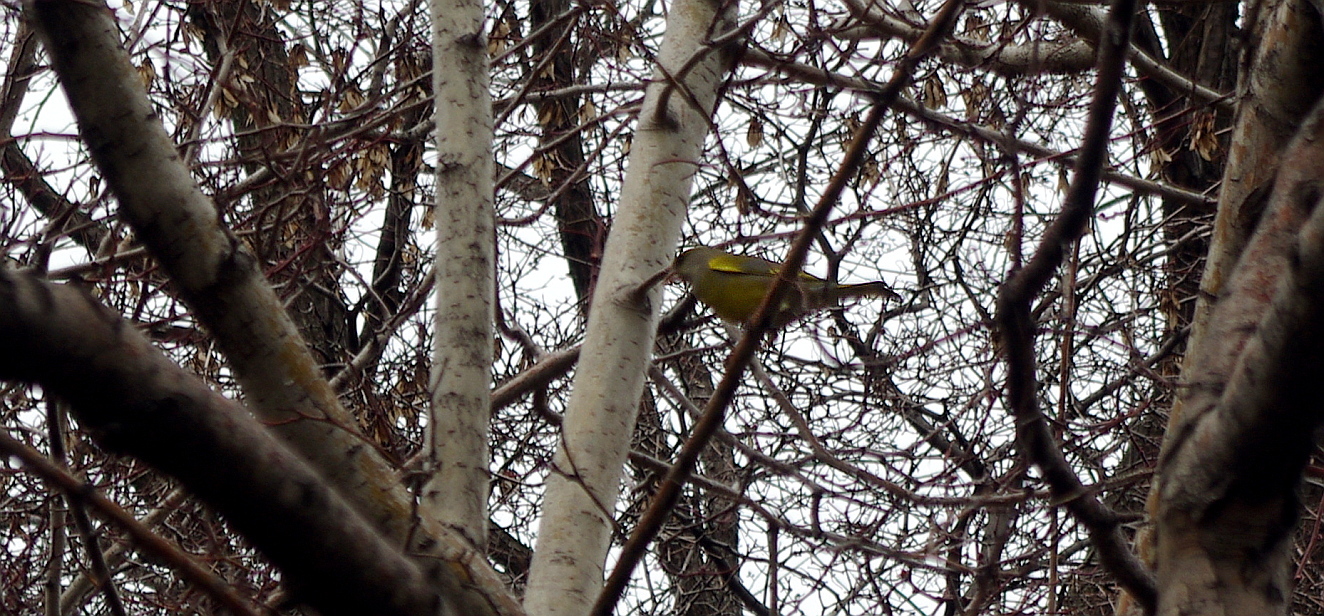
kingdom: Plantae
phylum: Tracheophyta
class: Liliopsida
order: Poales
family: Poaceae
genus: Chloris
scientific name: Chloris chloris
